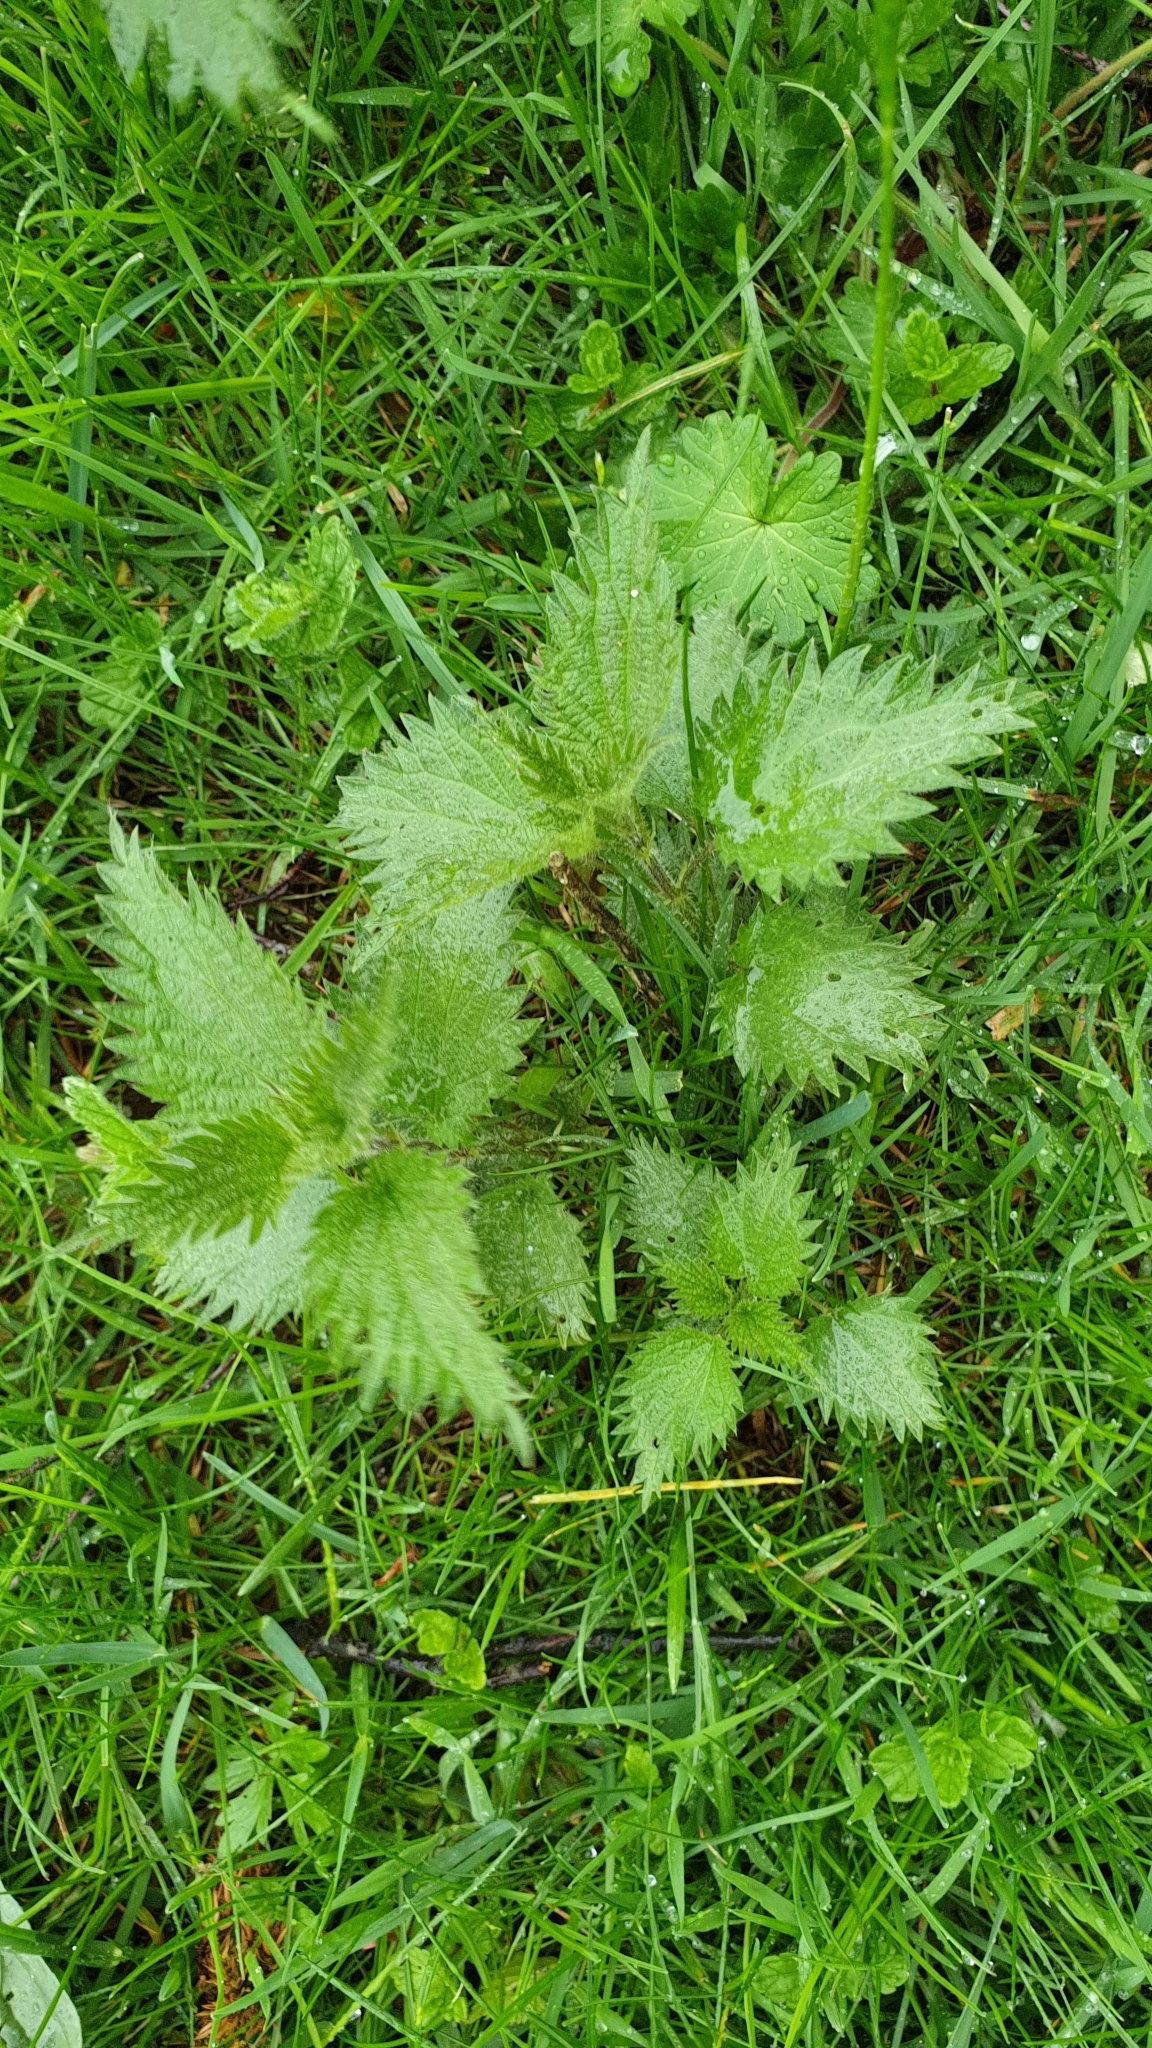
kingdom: Plantae
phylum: Tracheophyta
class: Magnoliopsida
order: Rosales
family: Urticaceae
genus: Urtica
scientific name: Urtica dioica
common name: Common nettle
